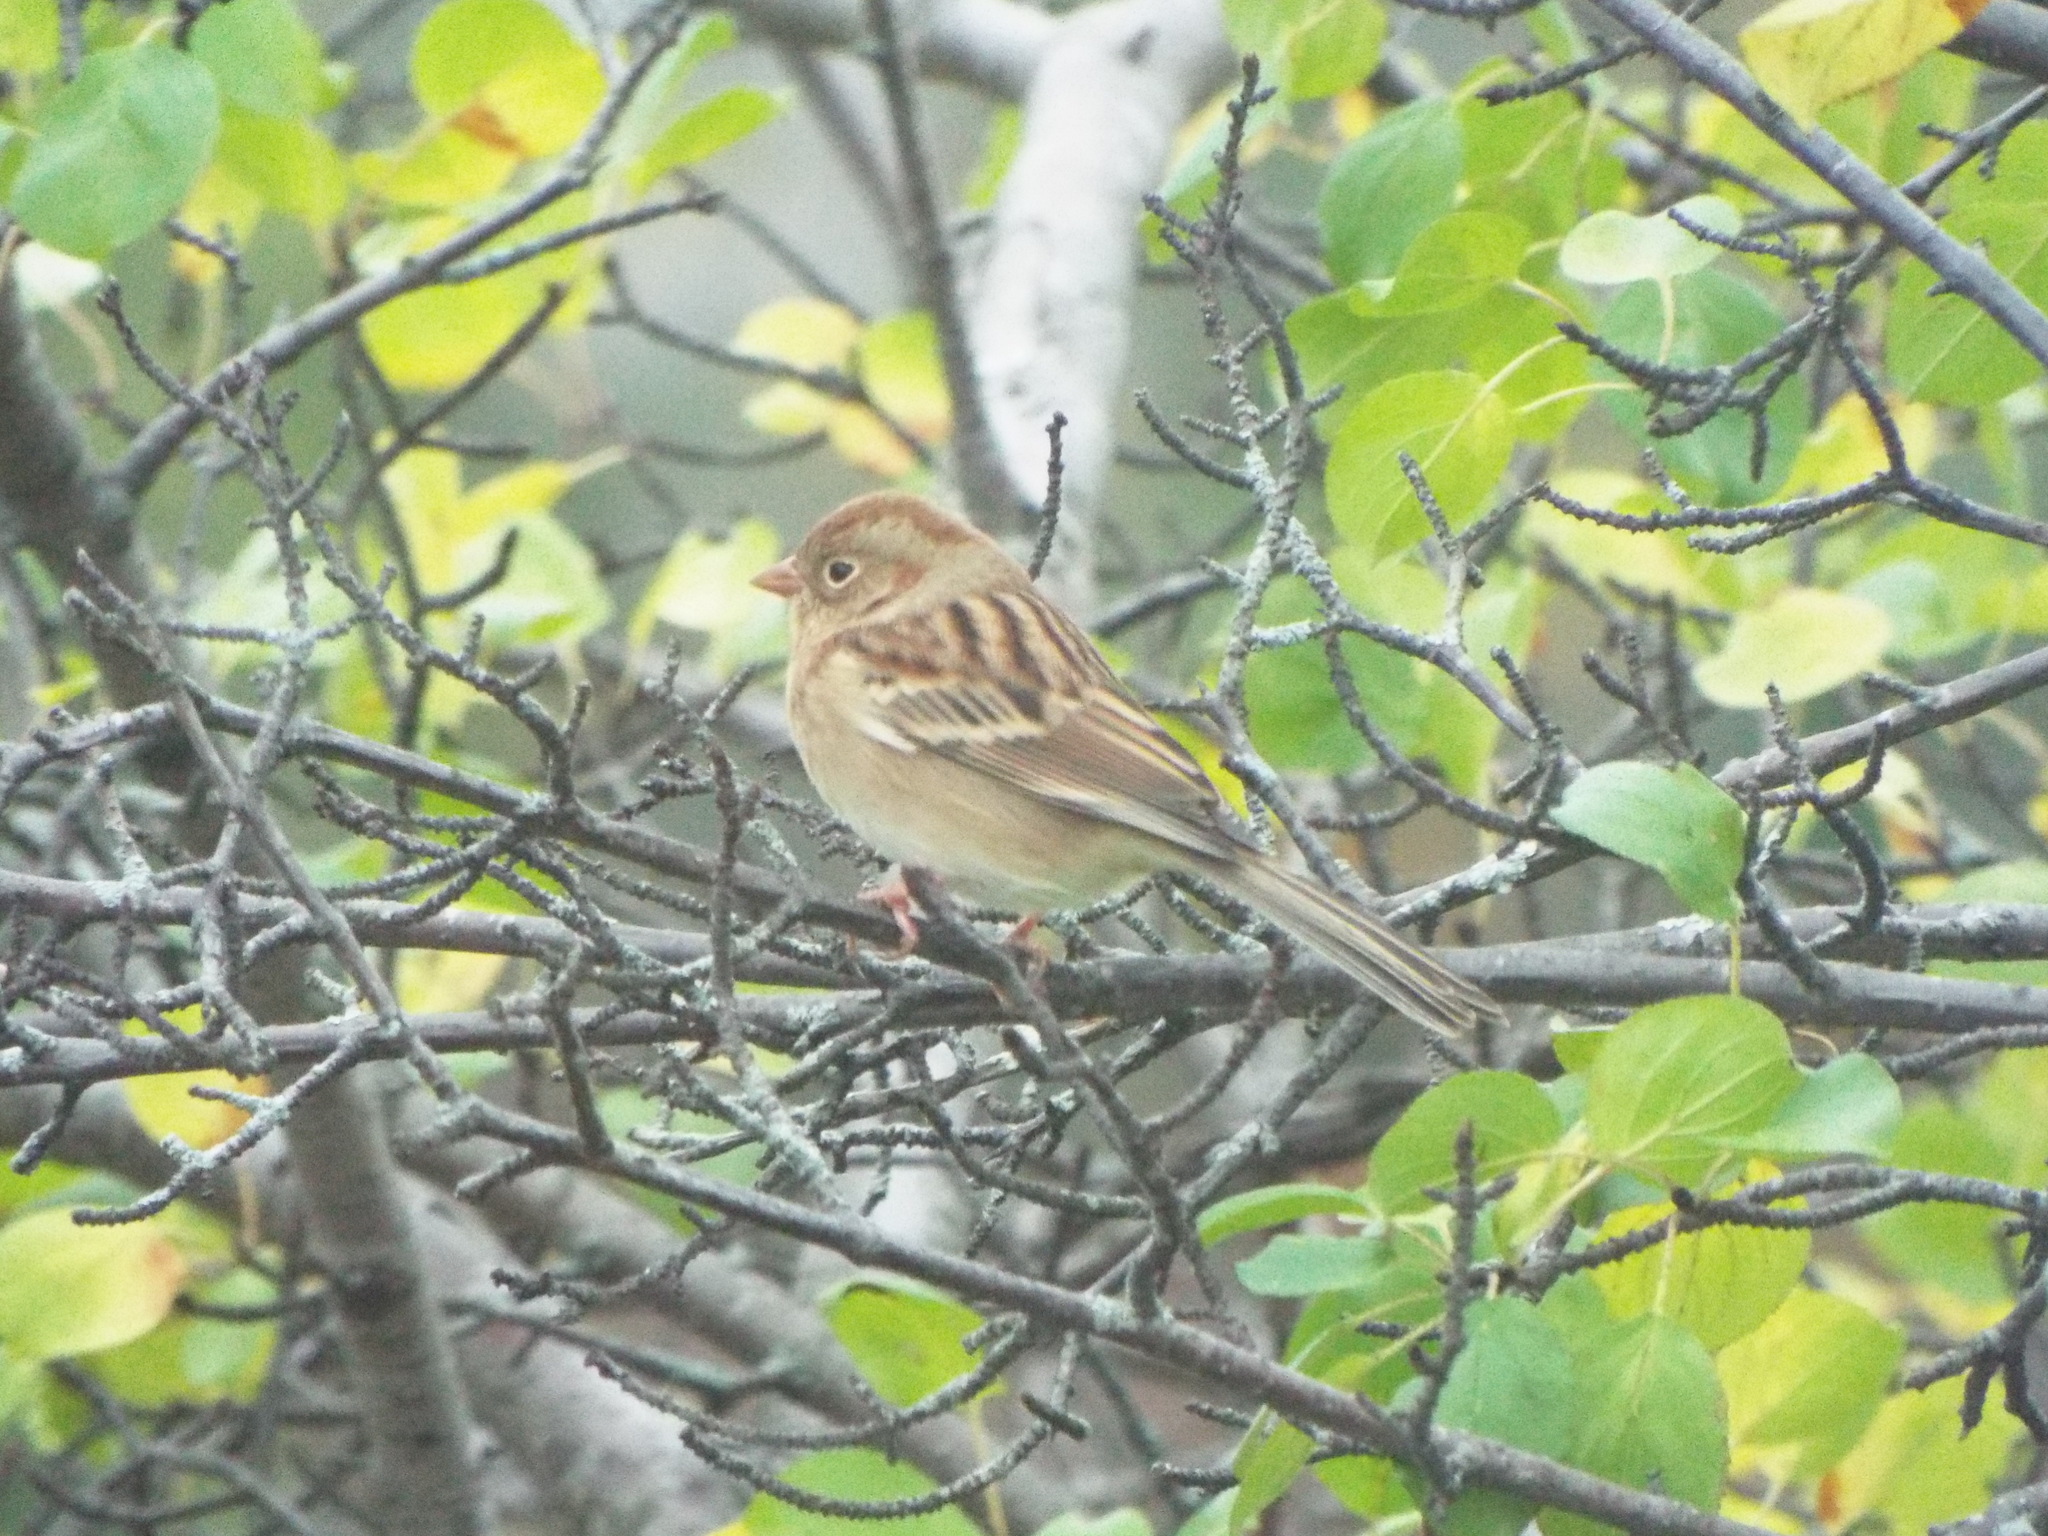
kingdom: Animalia
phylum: Chordata
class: Aves
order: Passeriformes
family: Passerellidae
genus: Spizella
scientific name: Spizella pusilla
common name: Field sparrow
